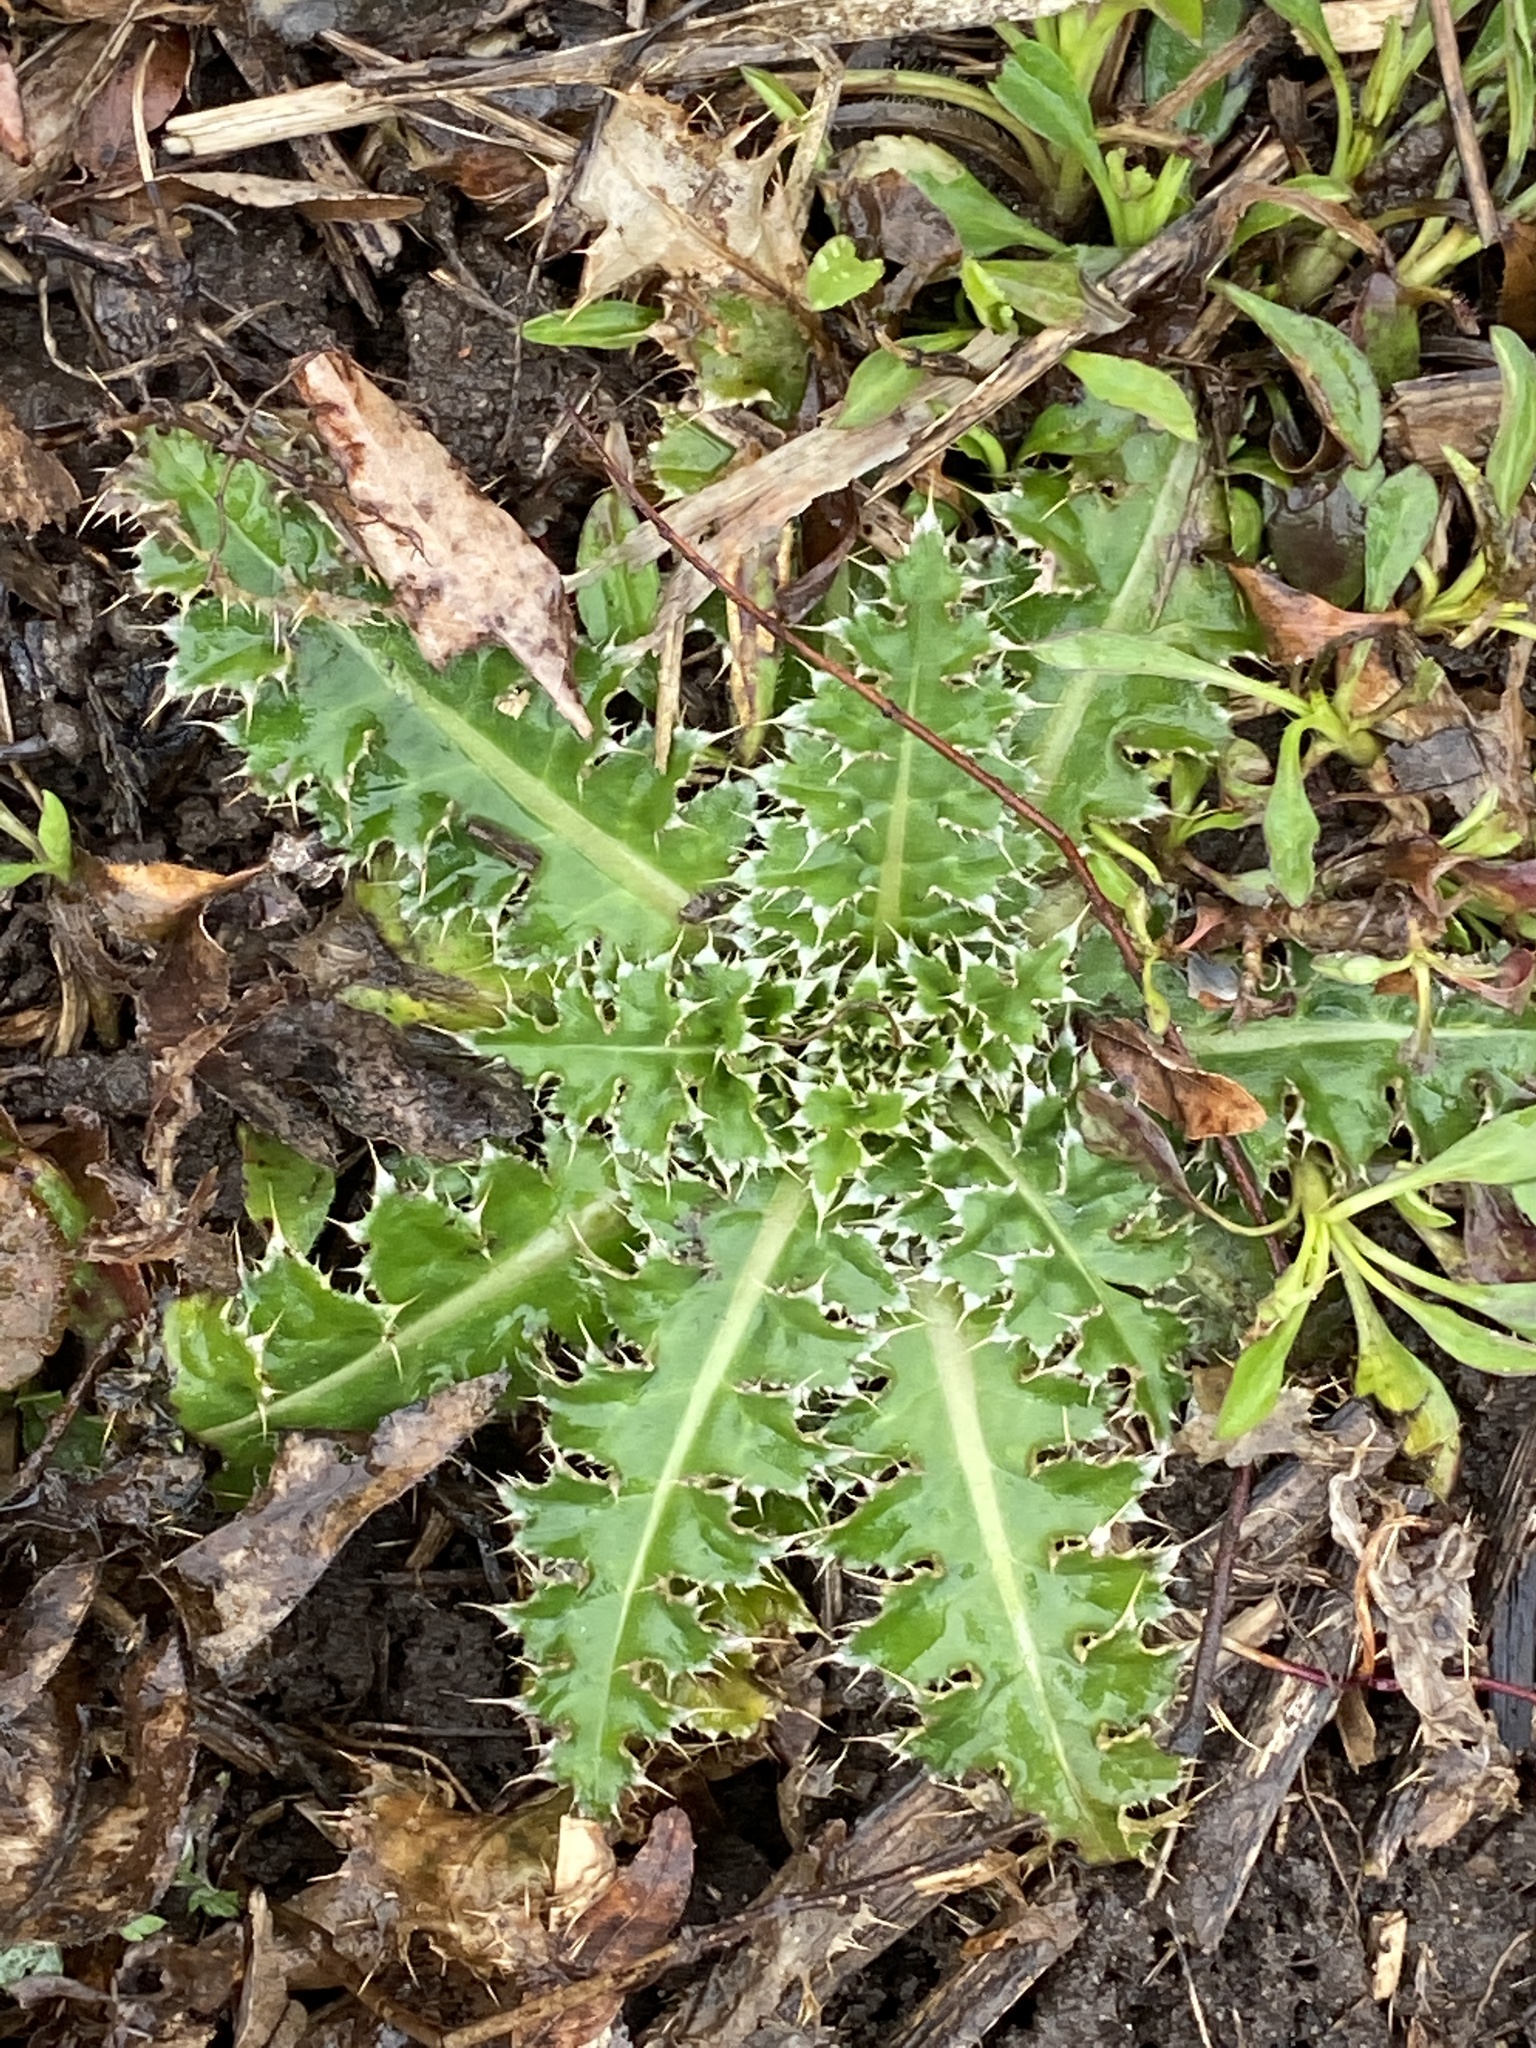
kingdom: Plantae
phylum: Tracheophyta
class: Magnoliopsida
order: Asterales
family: Asteraceae
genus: Carduus
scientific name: Carduus nutans
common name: Musk thistle
